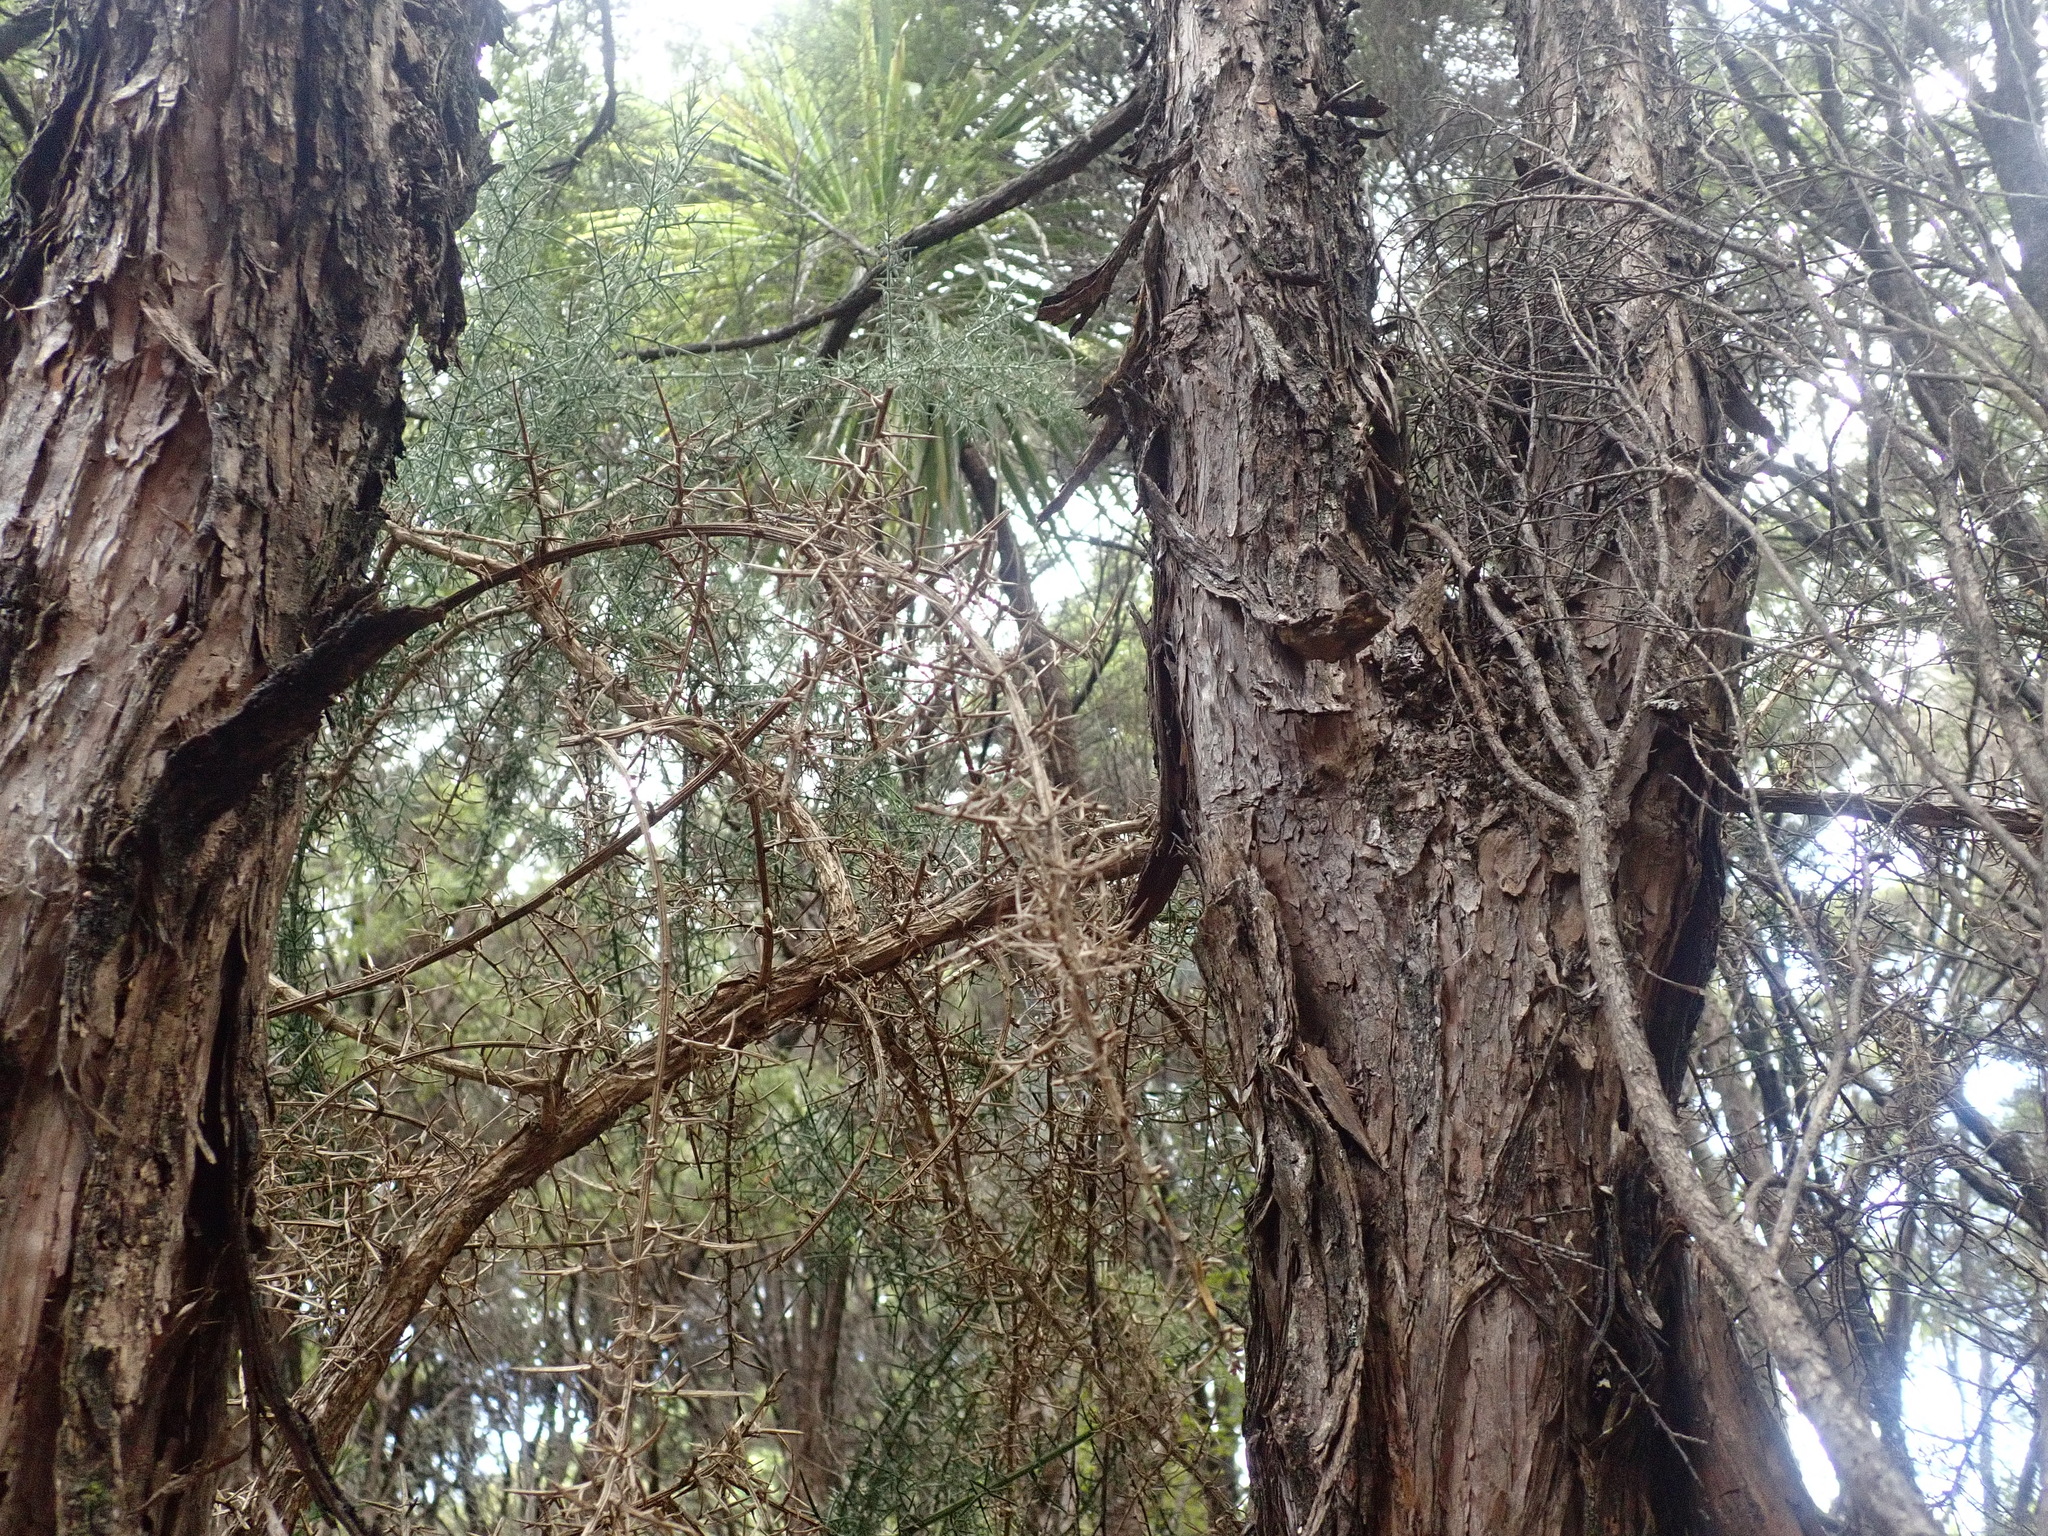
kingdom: Plantae
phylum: Tracheophyta
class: Magnoliopsida
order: Fabales
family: Fabaceae
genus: Ulex
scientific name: Ulex europaeus
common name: Common gorse
